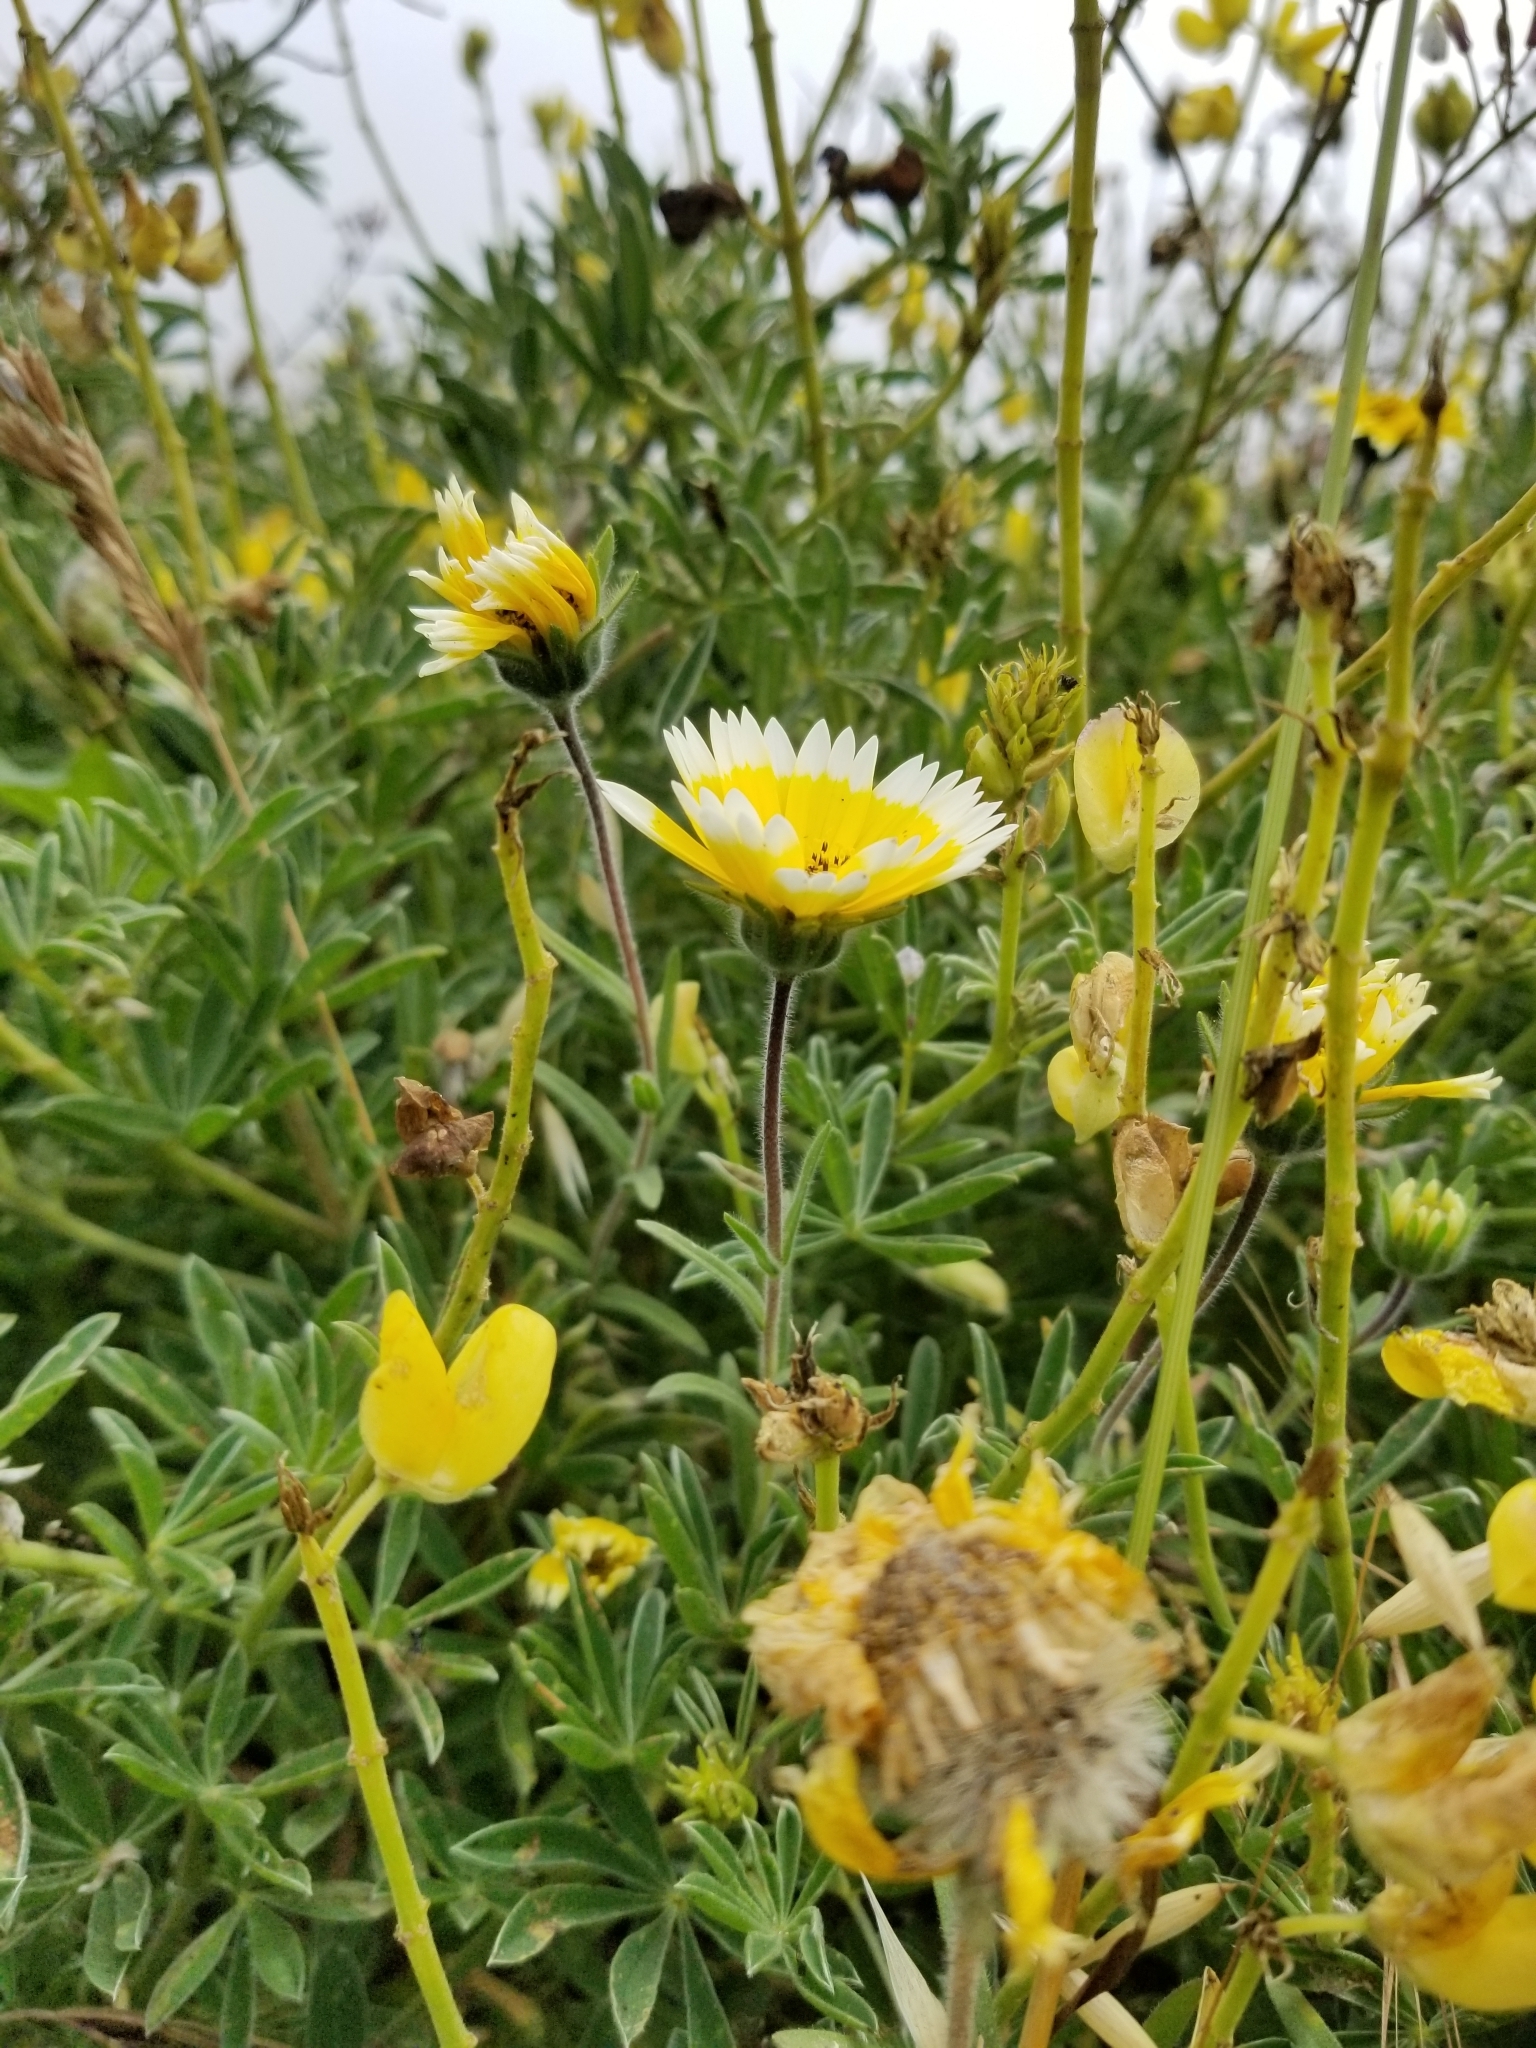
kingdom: Plantae
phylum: Tracheophyta
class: Magnoliopsida
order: Asterales
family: Asteraceae
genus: Layia
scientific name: Layia platyglossa
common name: Tidy-tips
